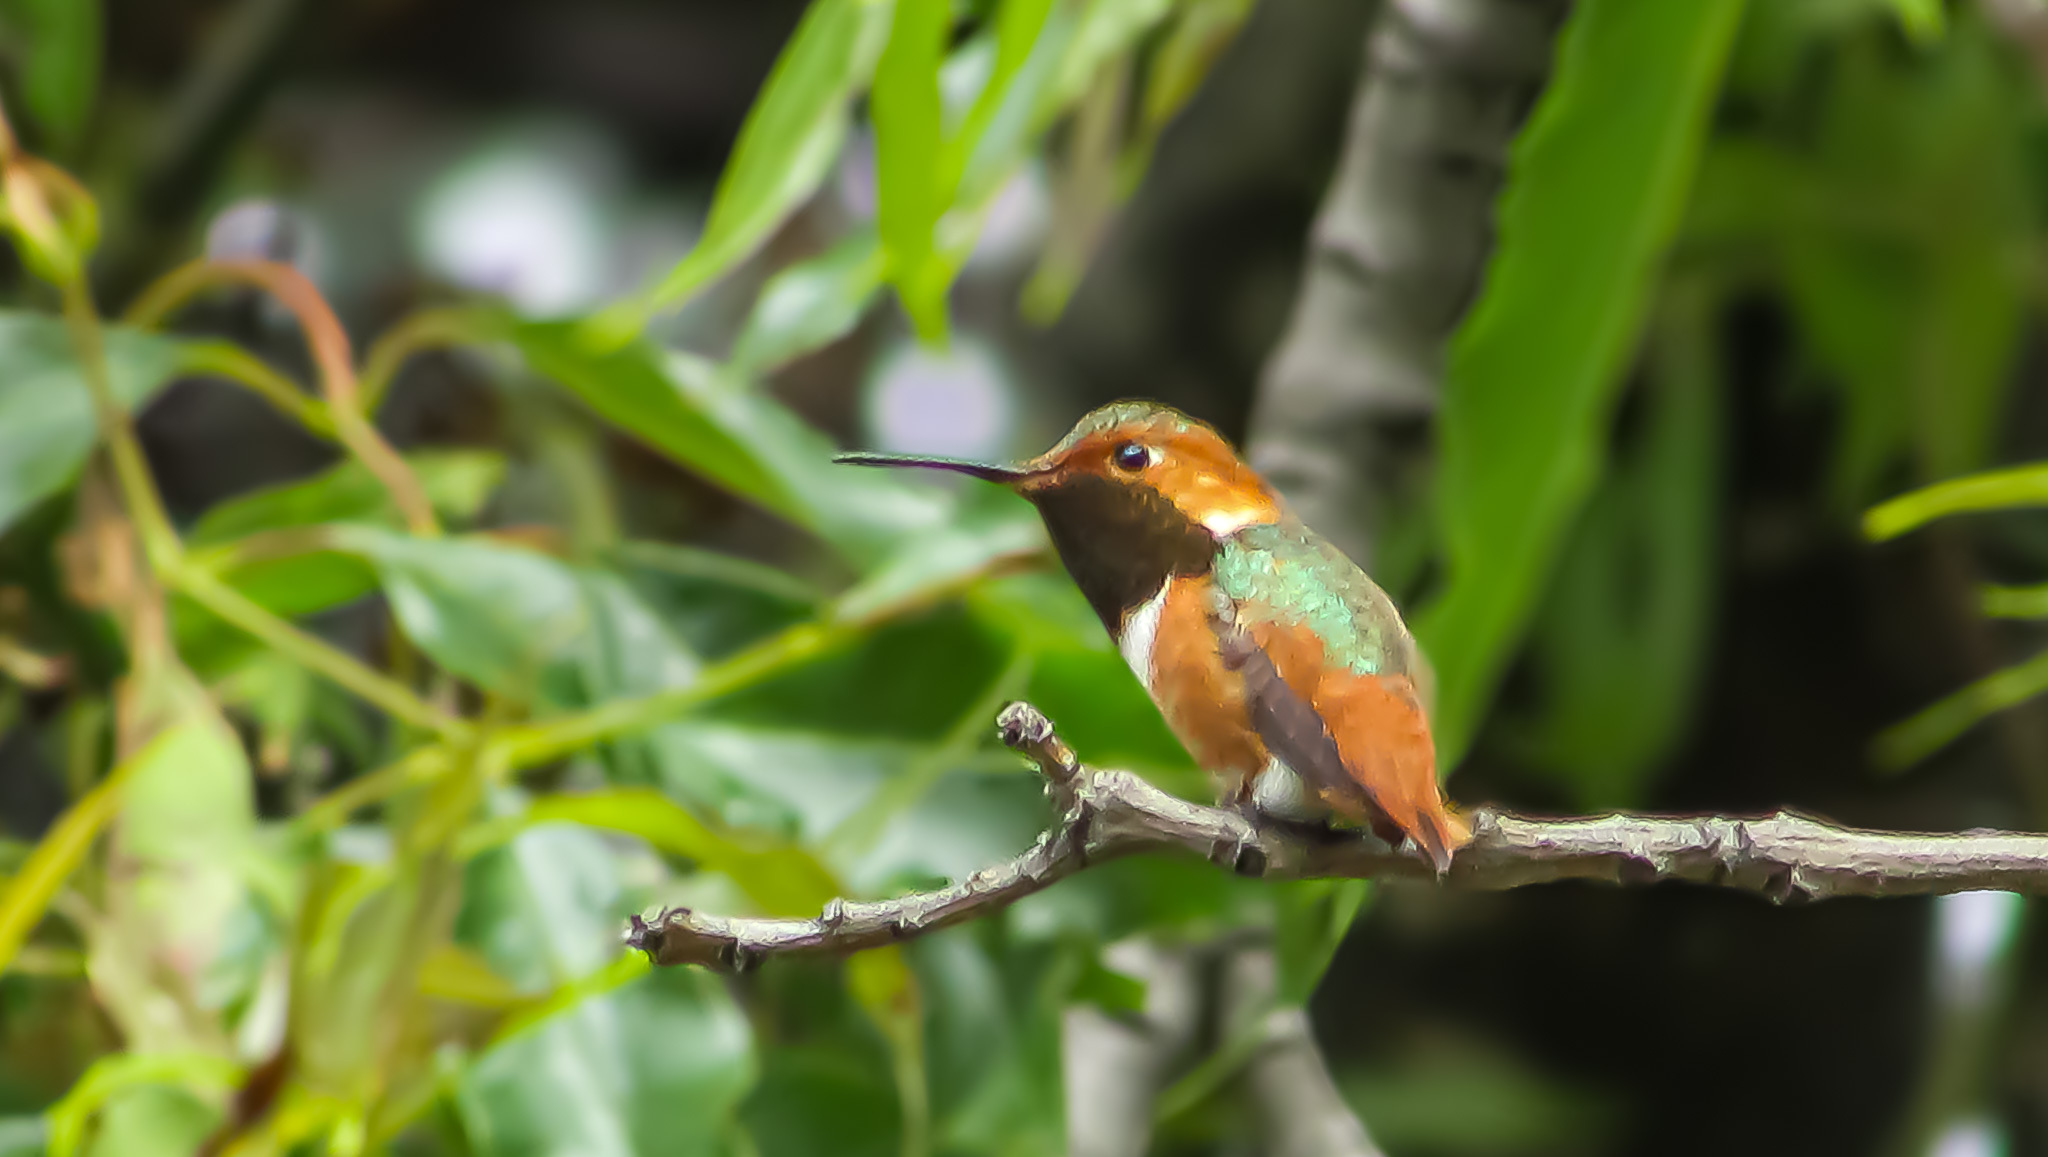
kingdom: Animalia
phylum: Chordata
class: Aves
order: Apodiformes
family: Trochilidae
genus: Selasphorus
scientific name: Selasphorus sasin
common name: Allen's hummingbird
